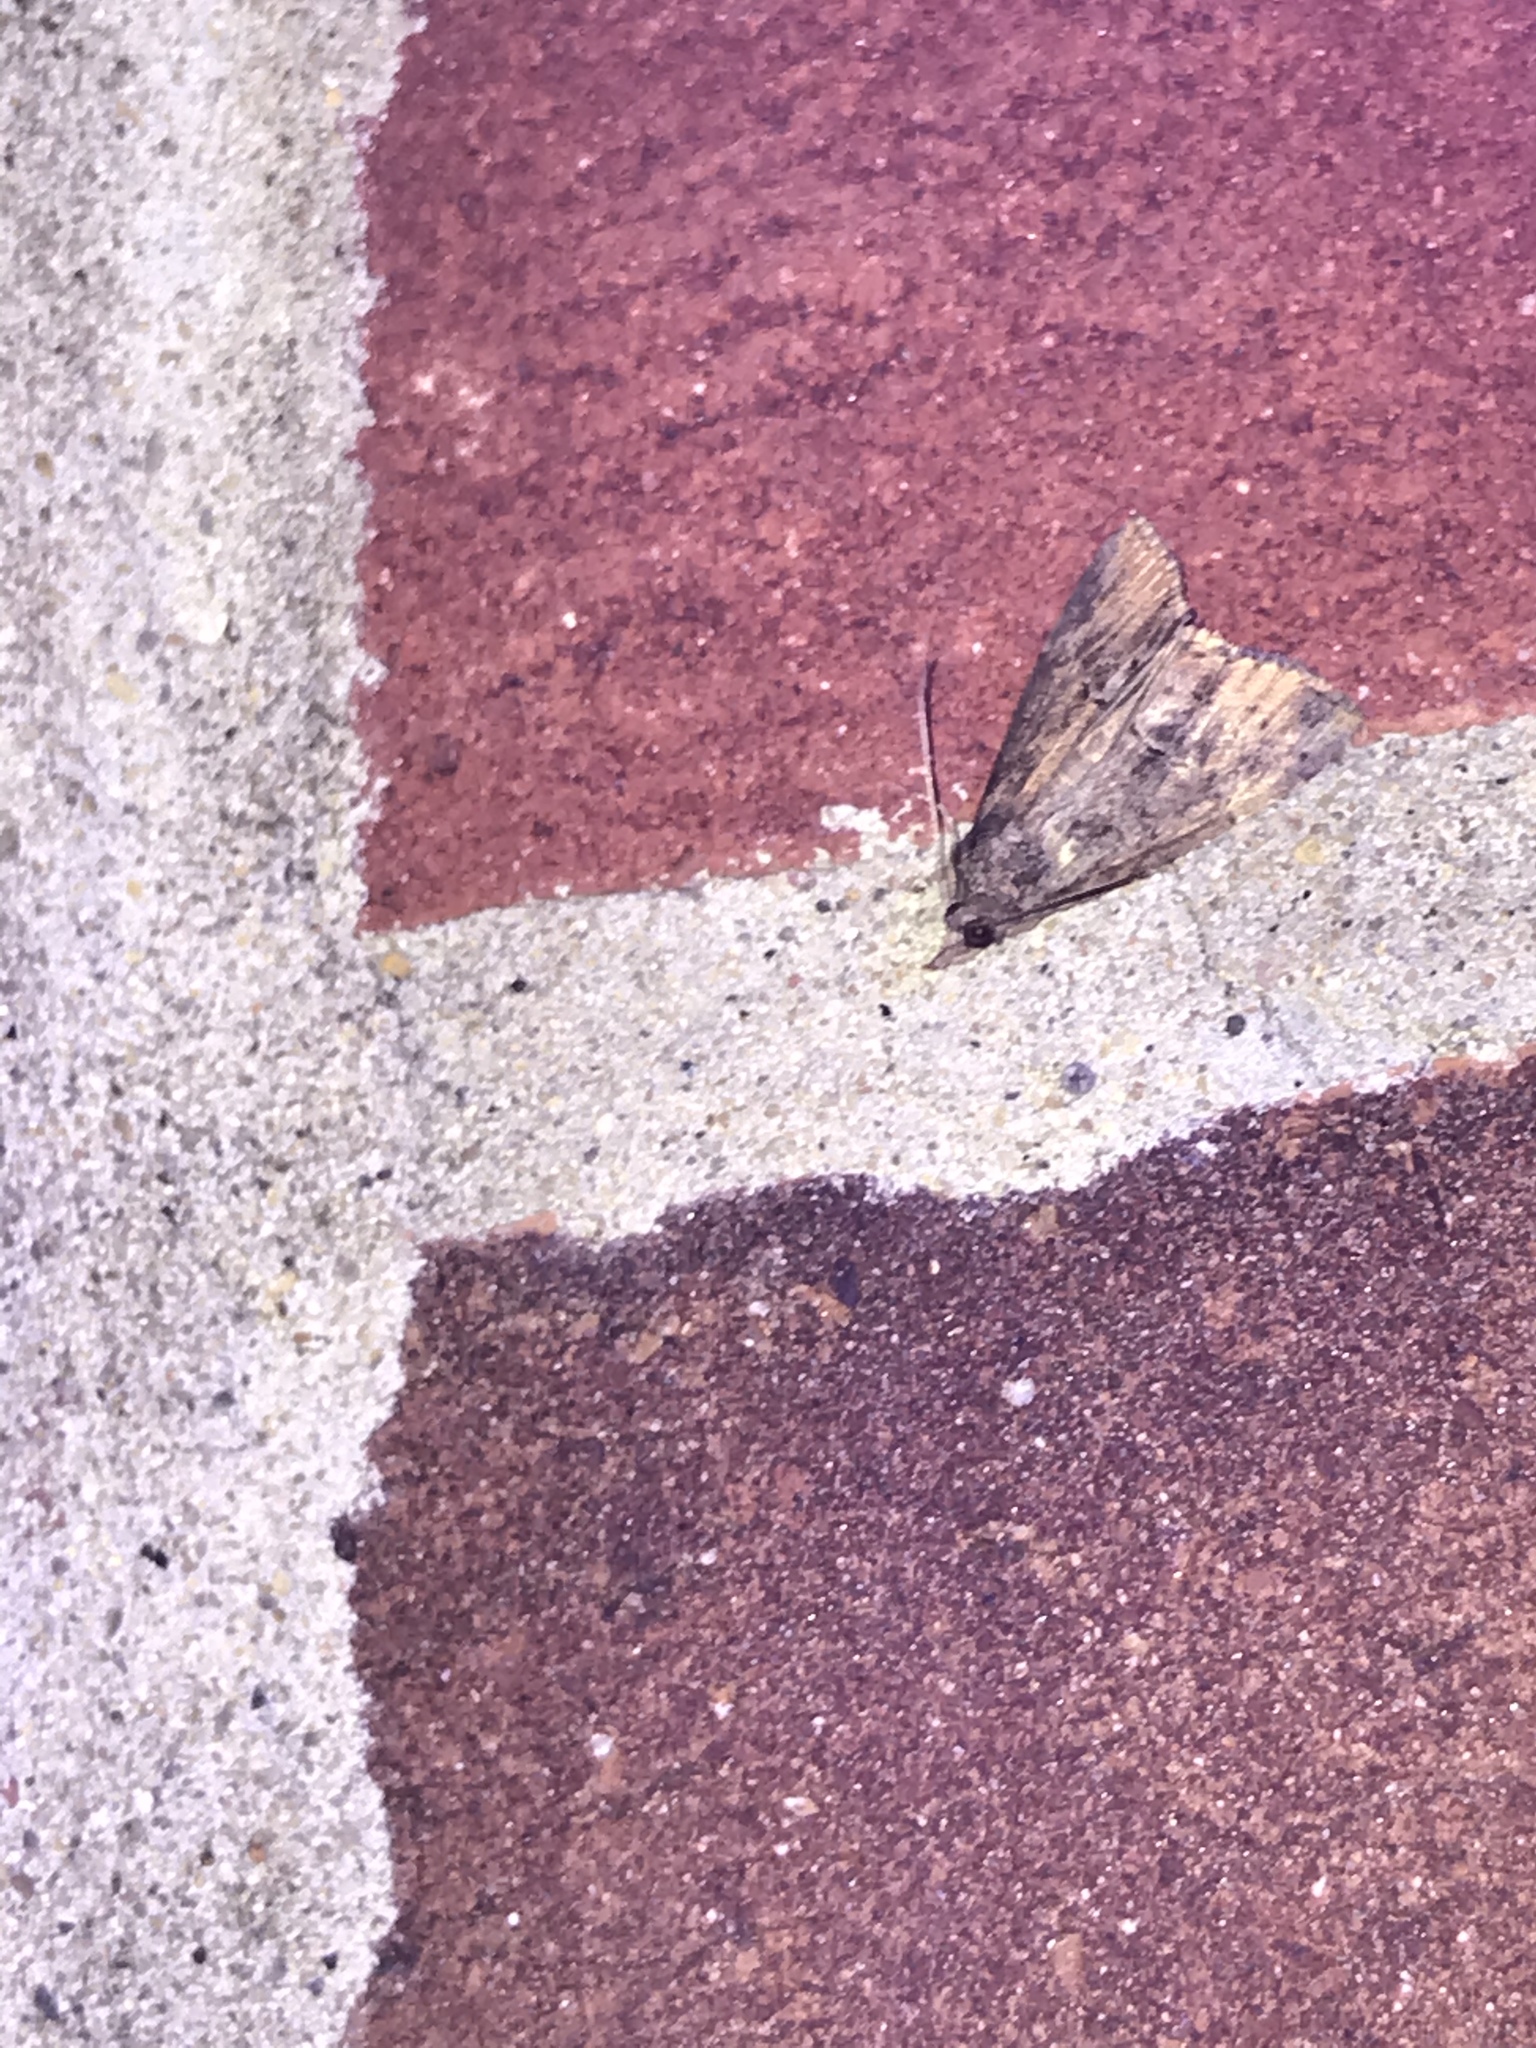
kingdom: Animalia
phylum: Arthropoda
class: Insecta
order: Lepidoptera
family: Erebidae
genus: Hypena
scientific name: Hypena scabra
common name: Green cloverworm
